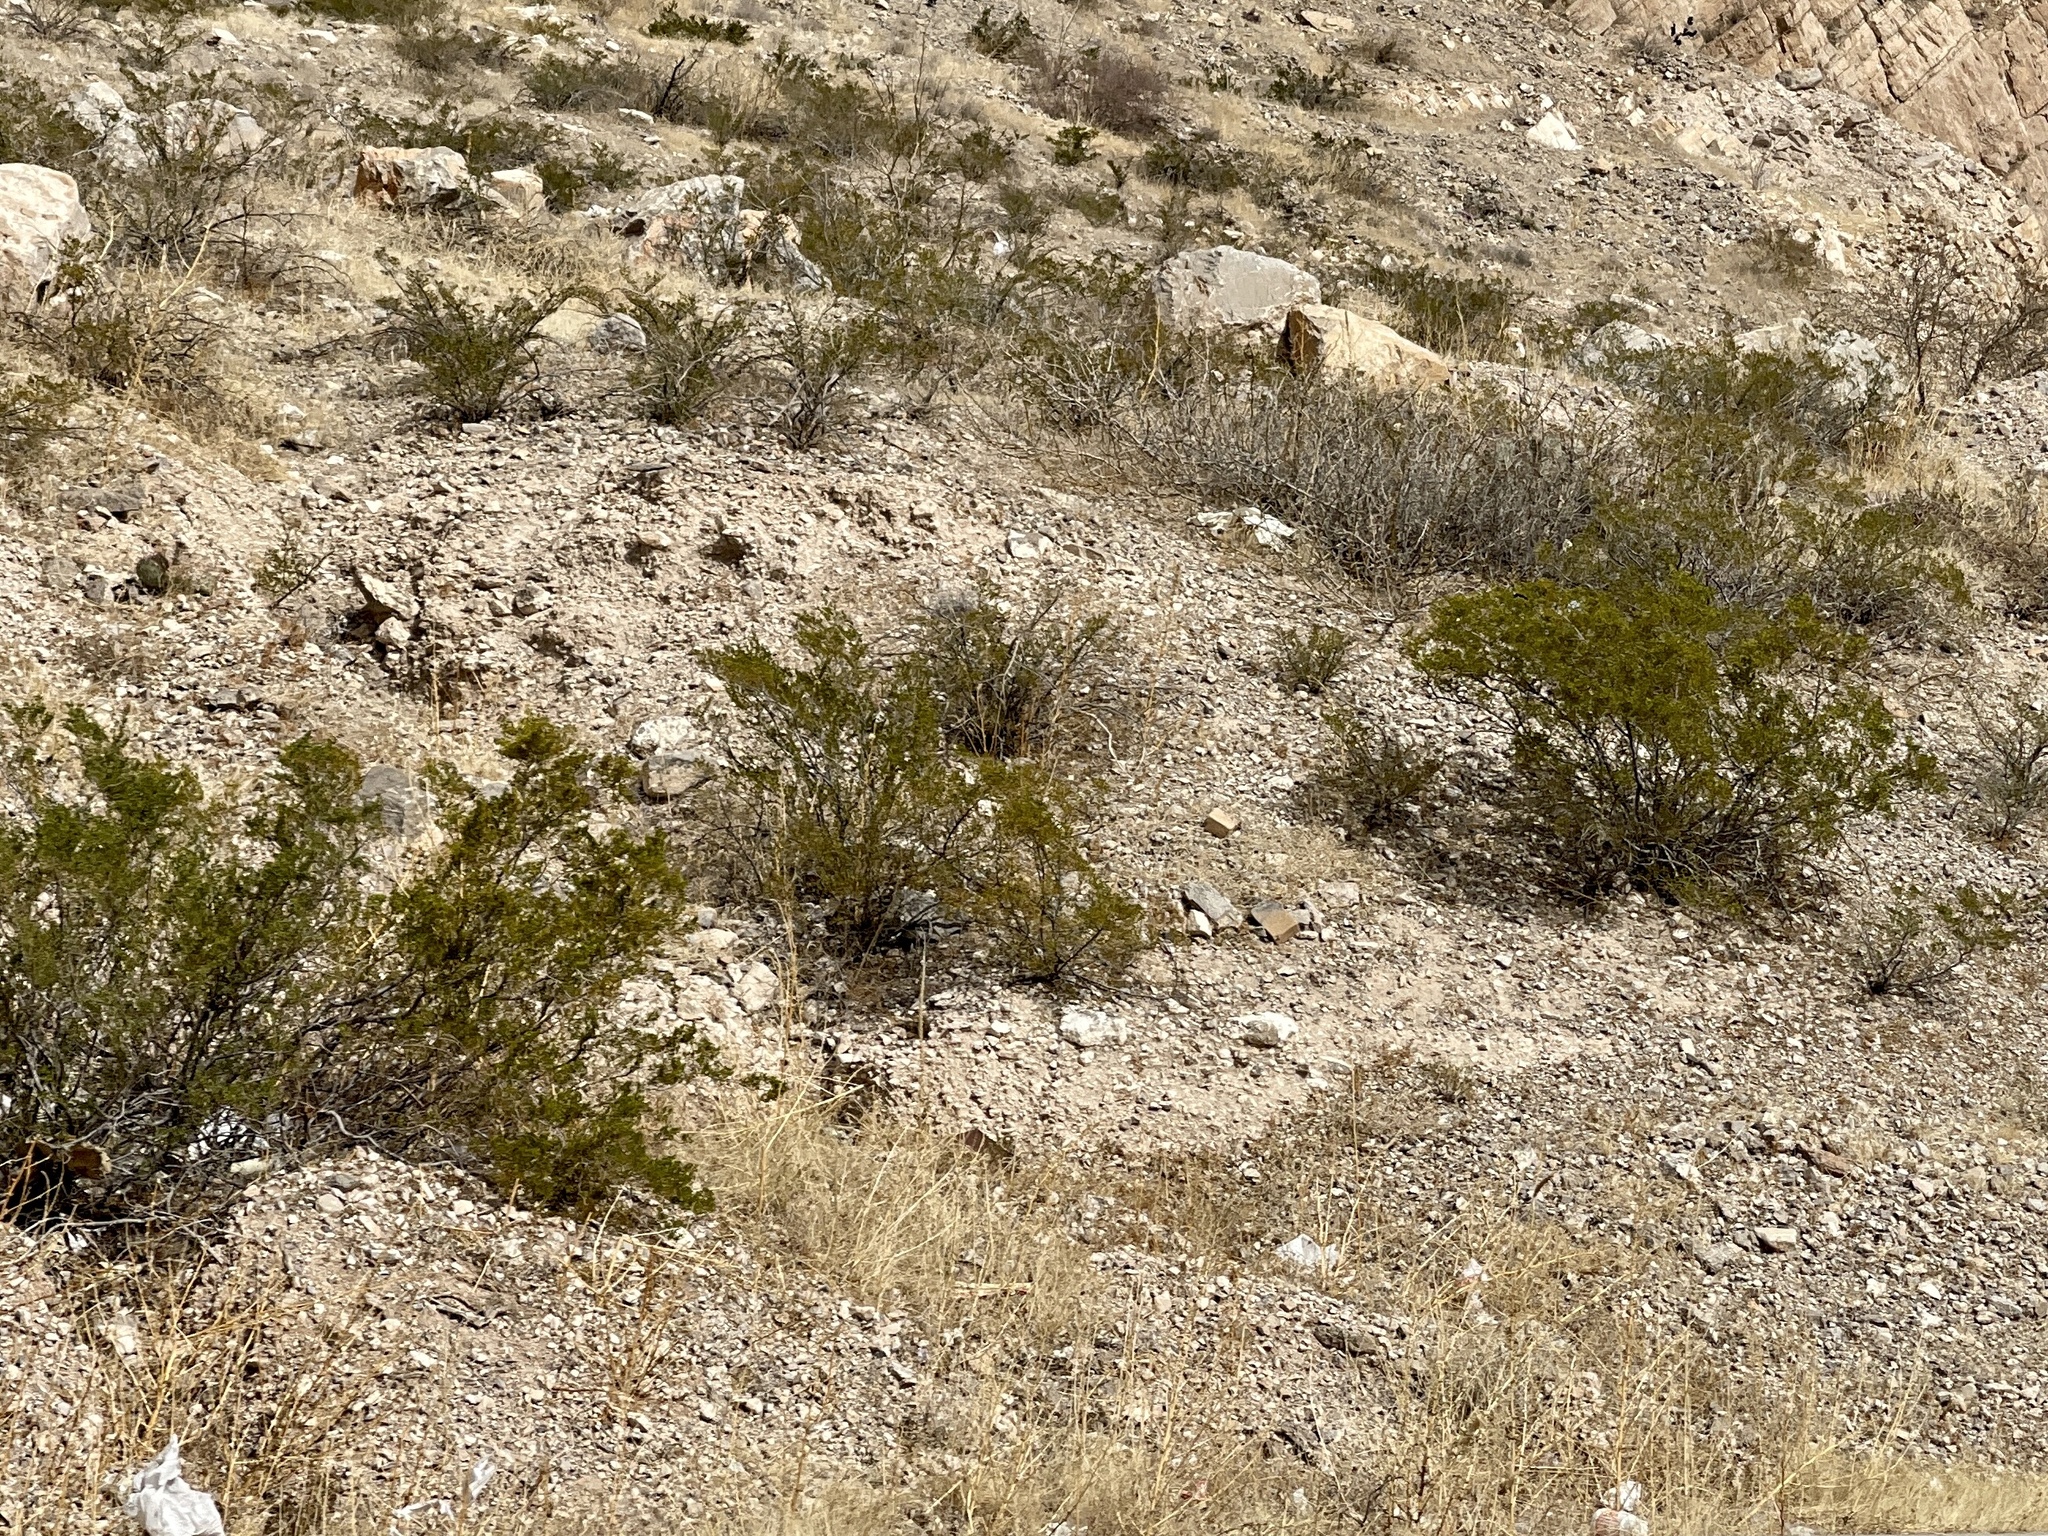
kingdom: Plantae
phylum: Tracheophyta
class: Magnoliopsida
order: Zygophyllales
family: Zygophyllaceae
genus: Larrea
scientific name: Larrea tridentata
